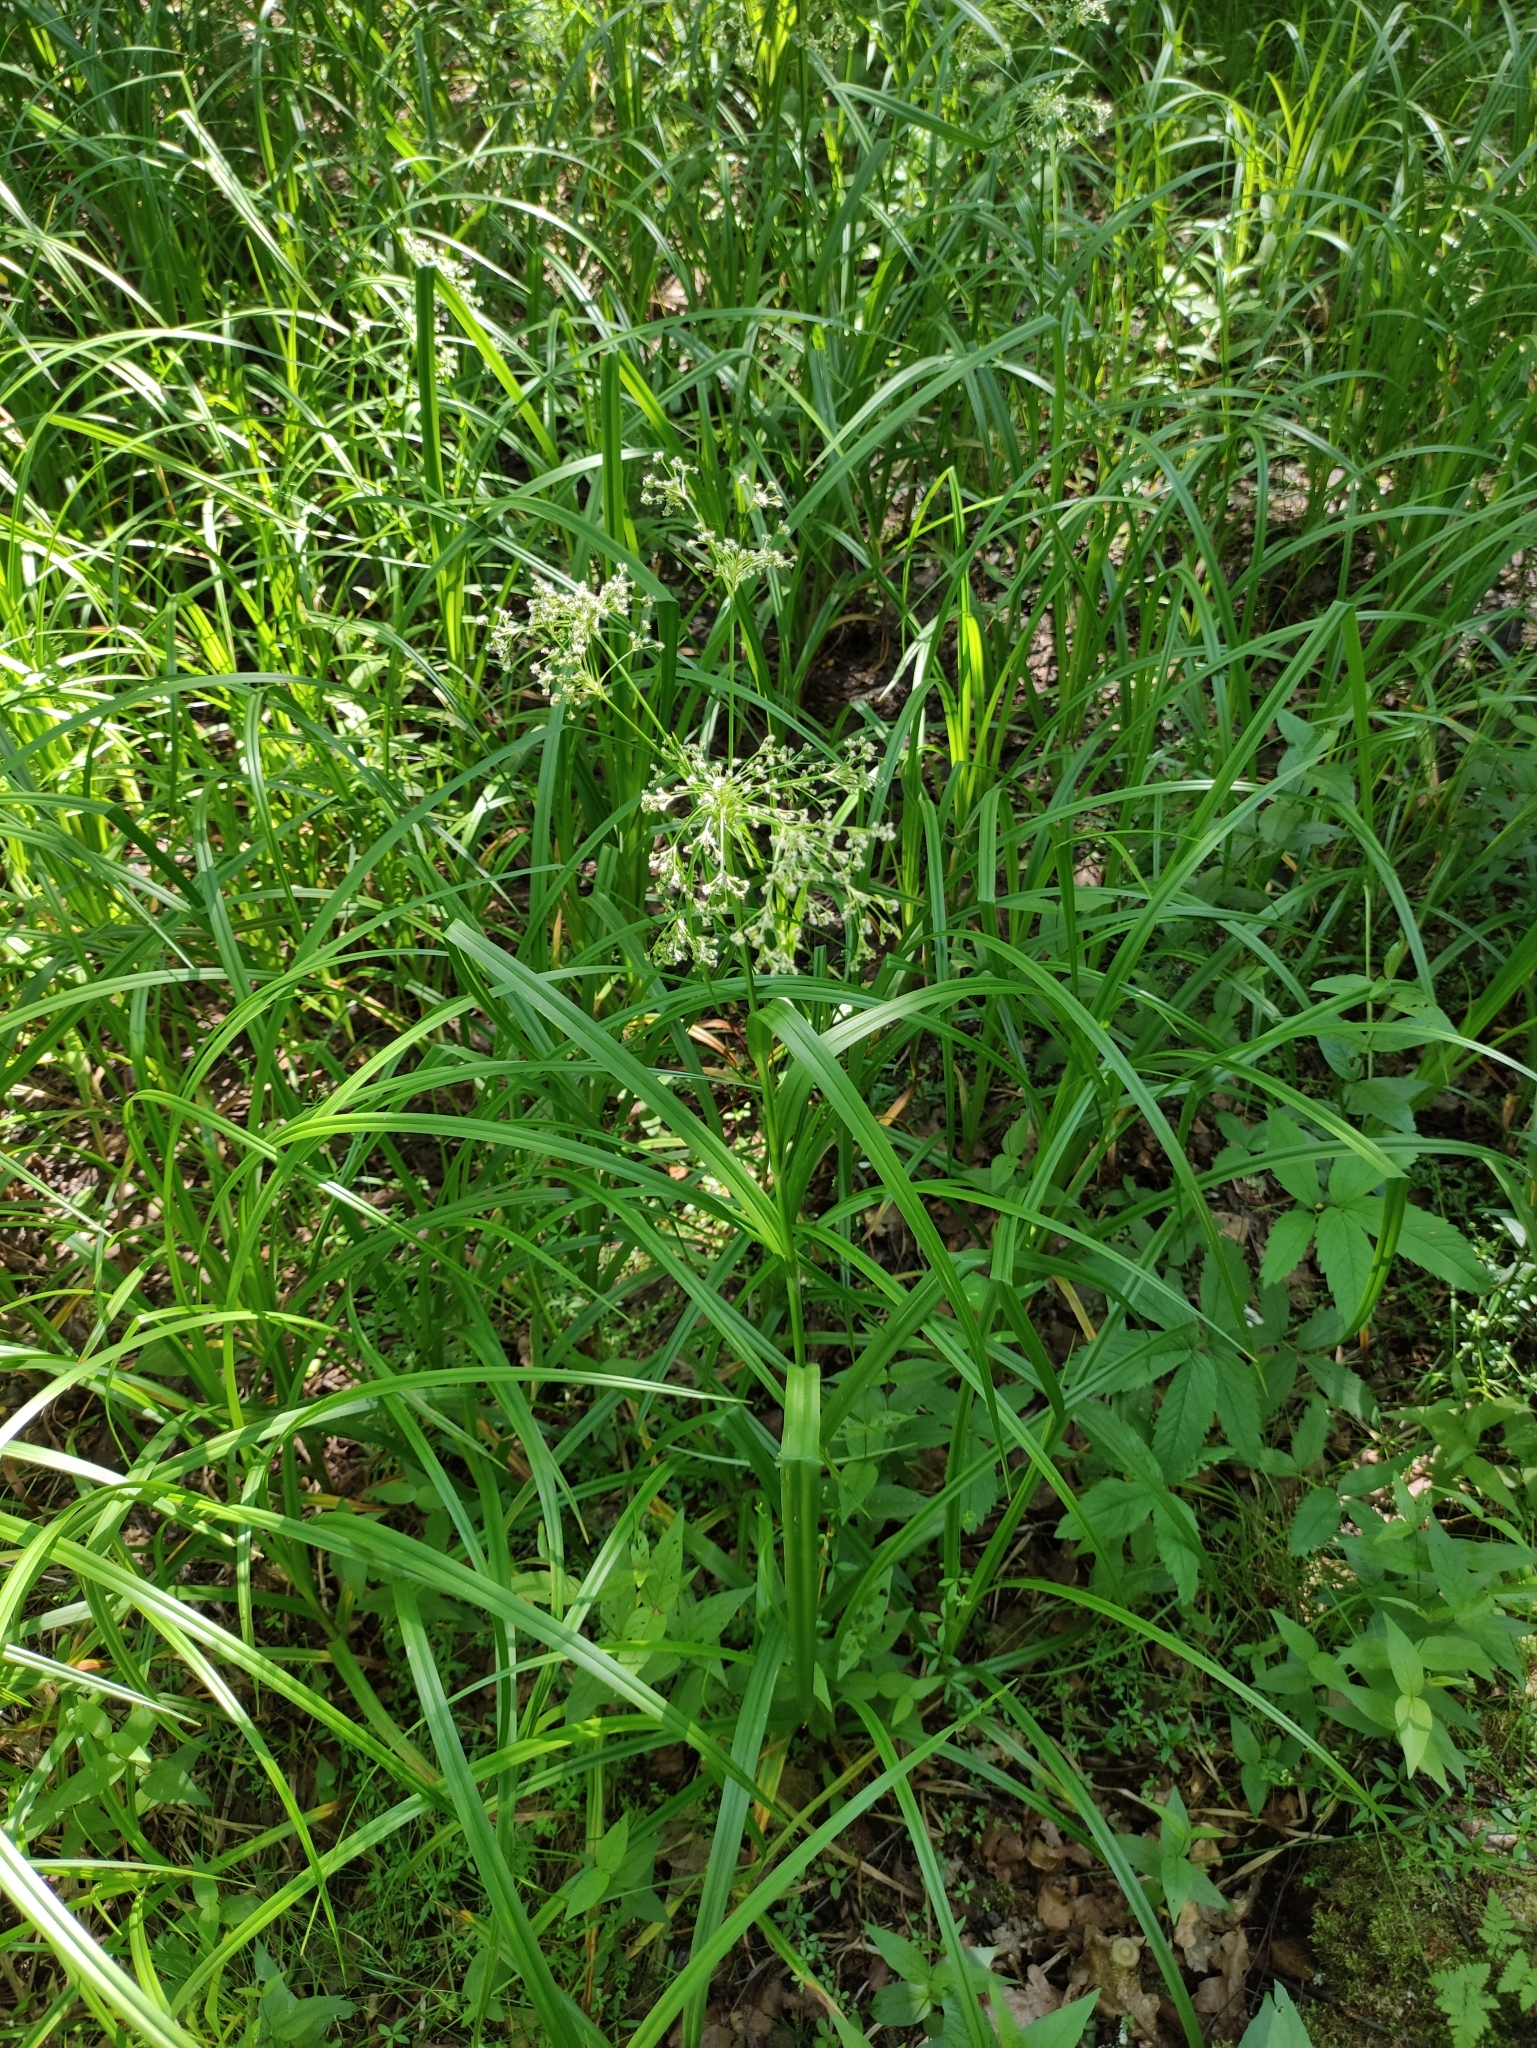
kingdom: Plantae
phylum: Tracheophyta
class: Liliopsida
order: Poales
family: Cyperaceae
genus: Scirpus
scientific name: Scirpus sylvaticus
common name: Wood club-rush
